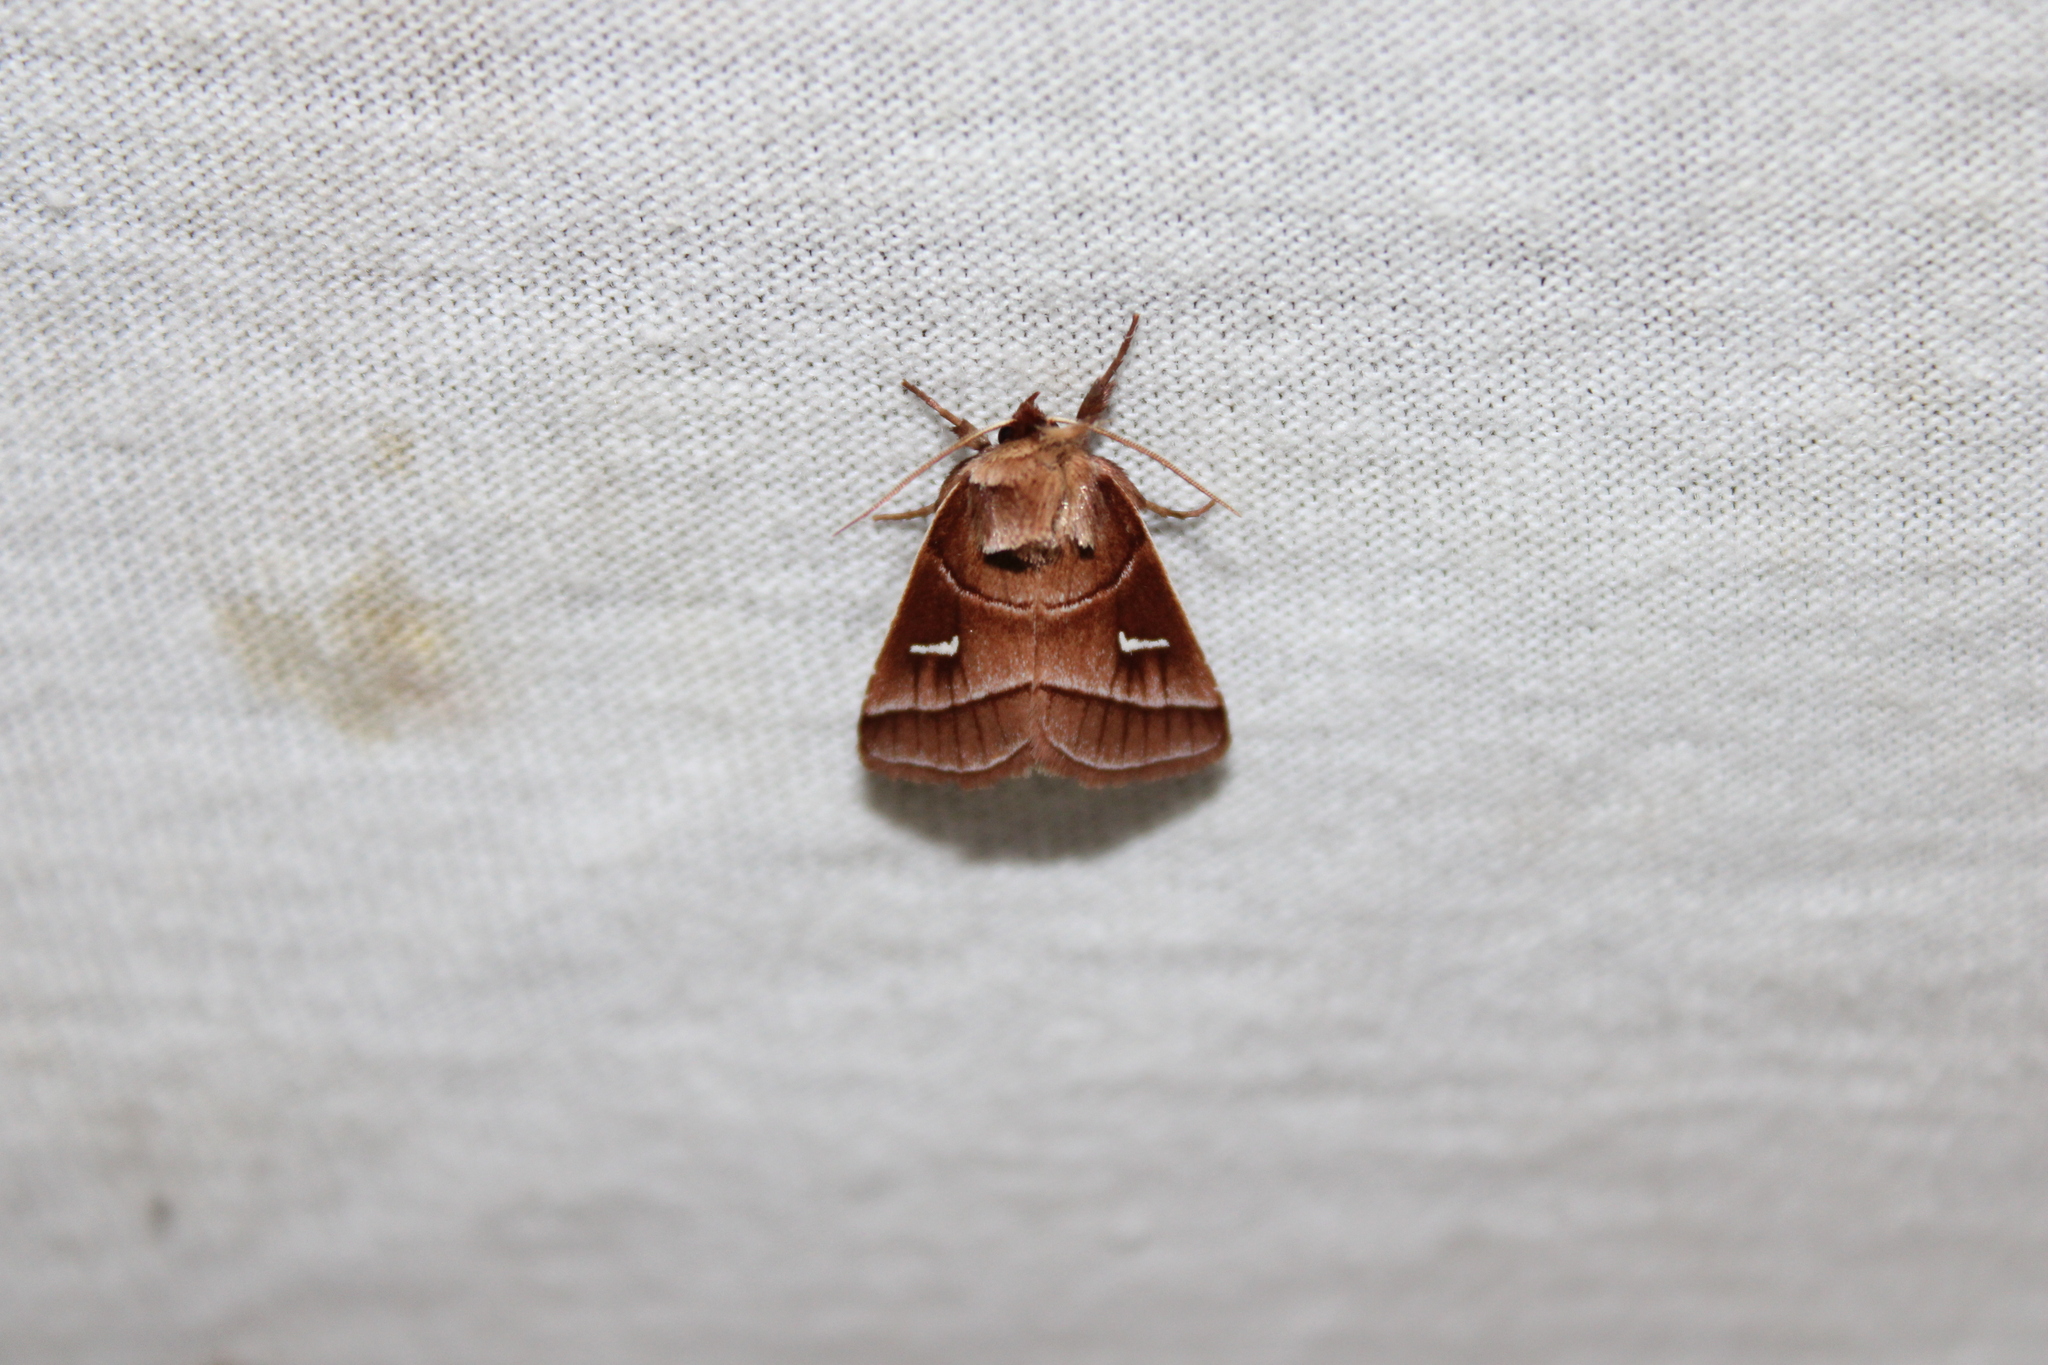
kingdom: Animalia
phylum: Arthropoda
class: Insecta
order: Lepidoptera
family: Noctuidae
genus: Fagitana
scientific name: Fagitana littera
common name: Marsh fern moth
